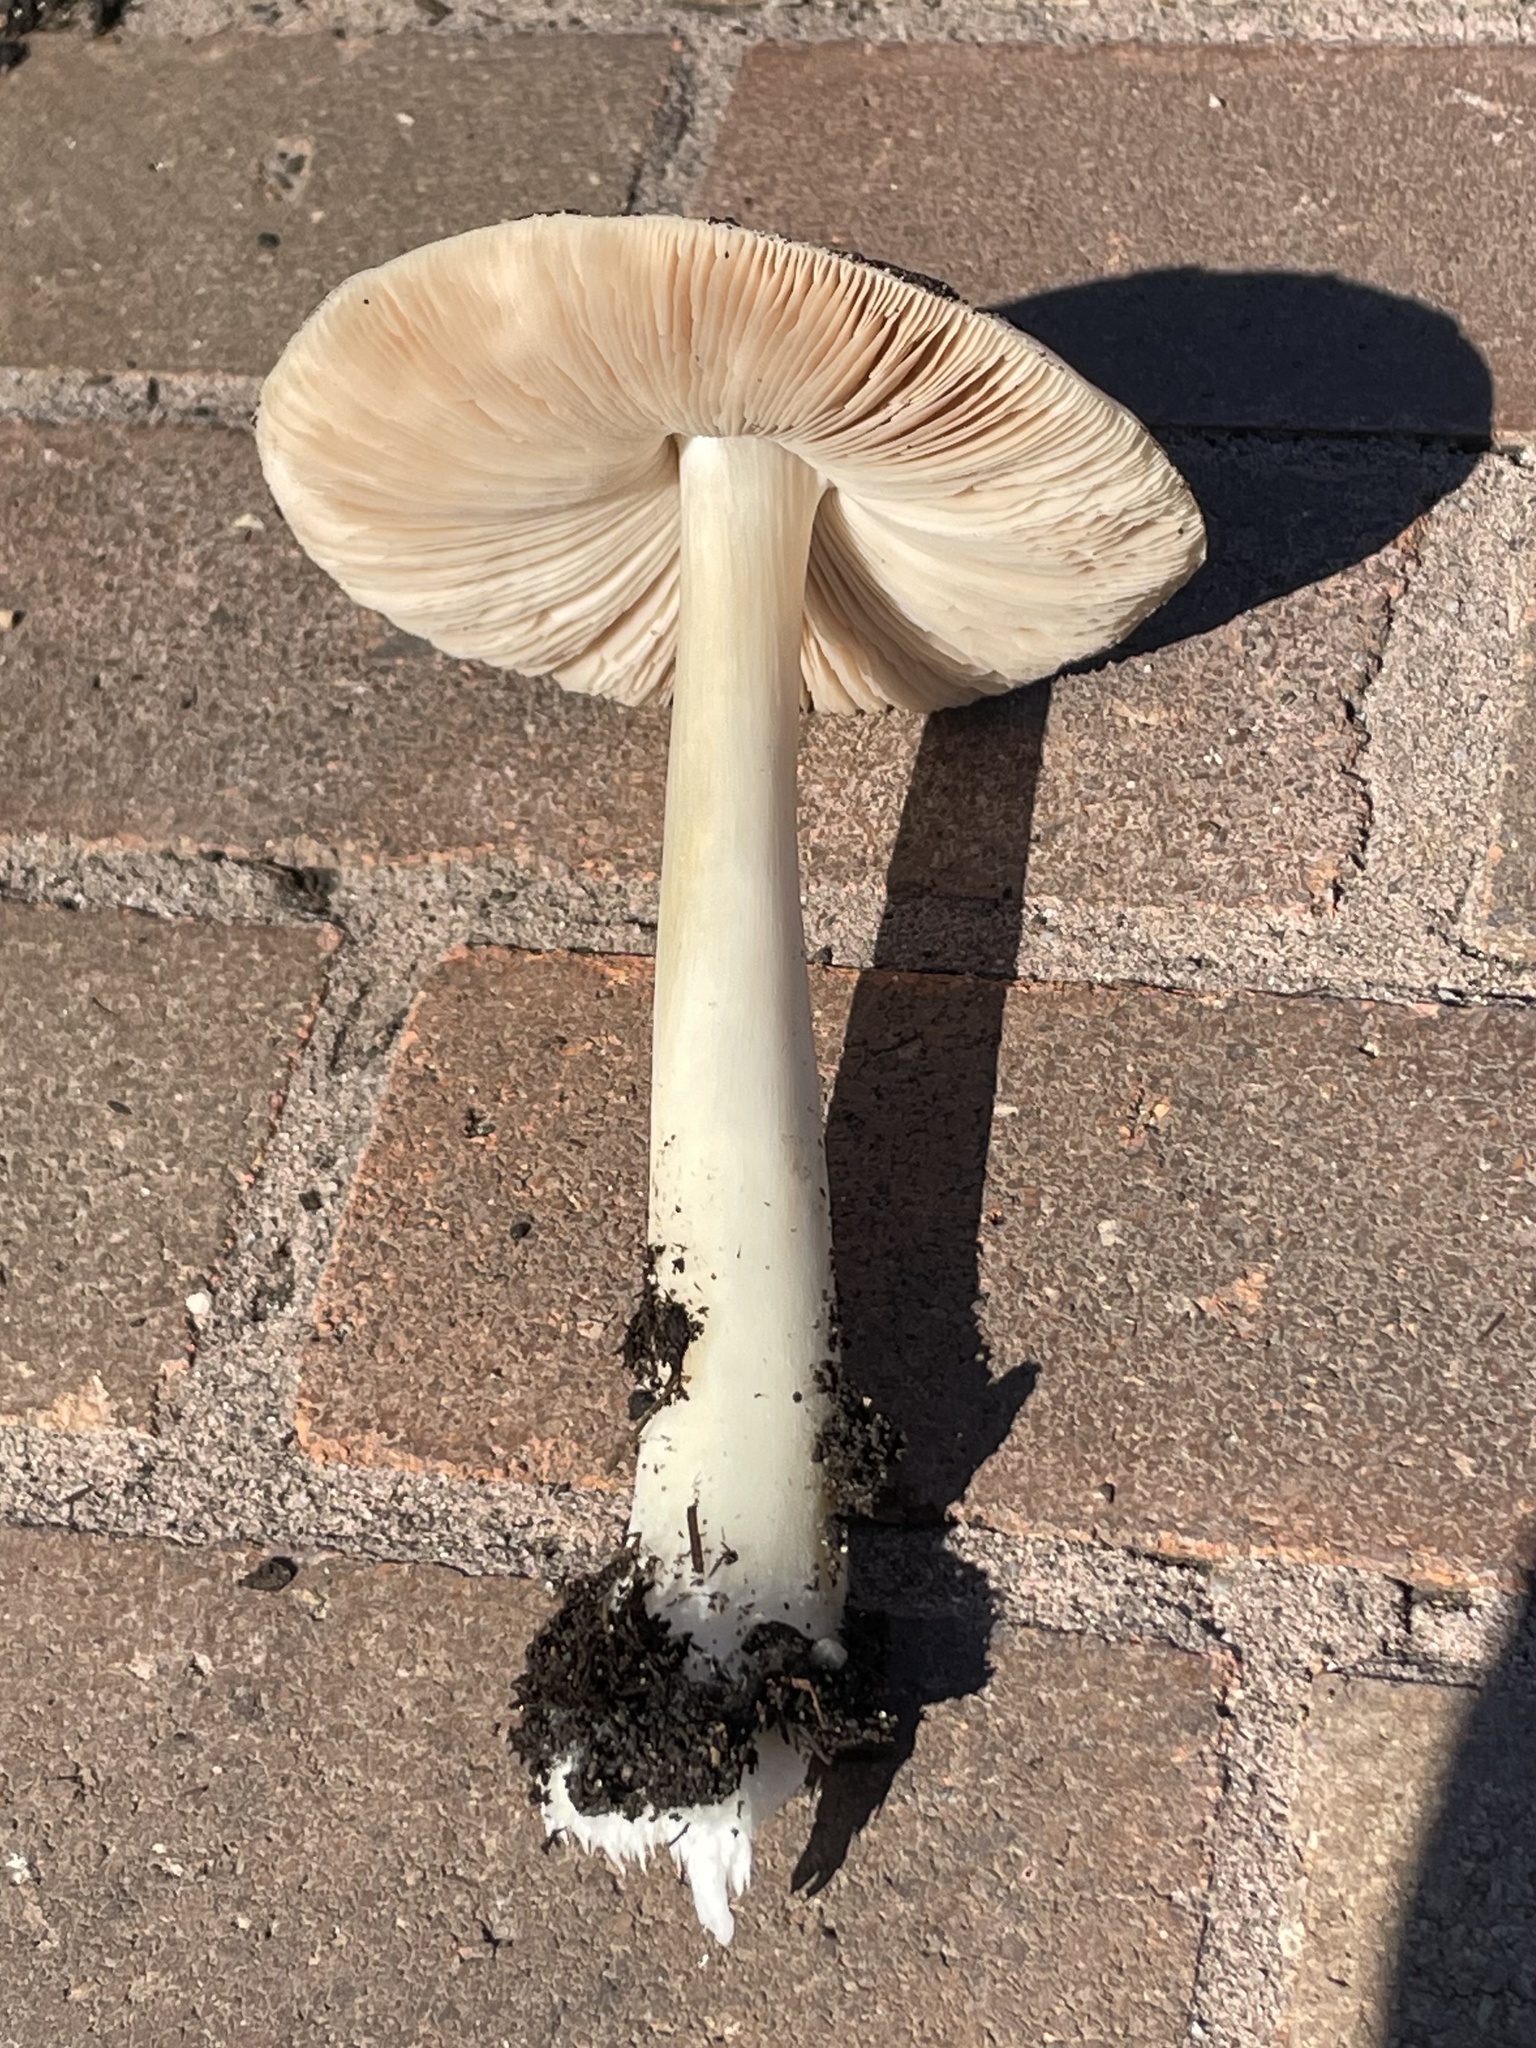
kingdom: Fungi
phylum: Basidiomycota
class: Agaricomycetes
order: Agaricales
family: Pluteaceae
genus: Volvopluteus
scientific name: Volvopluteus gloiocephalus
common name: Stubble rosegill
